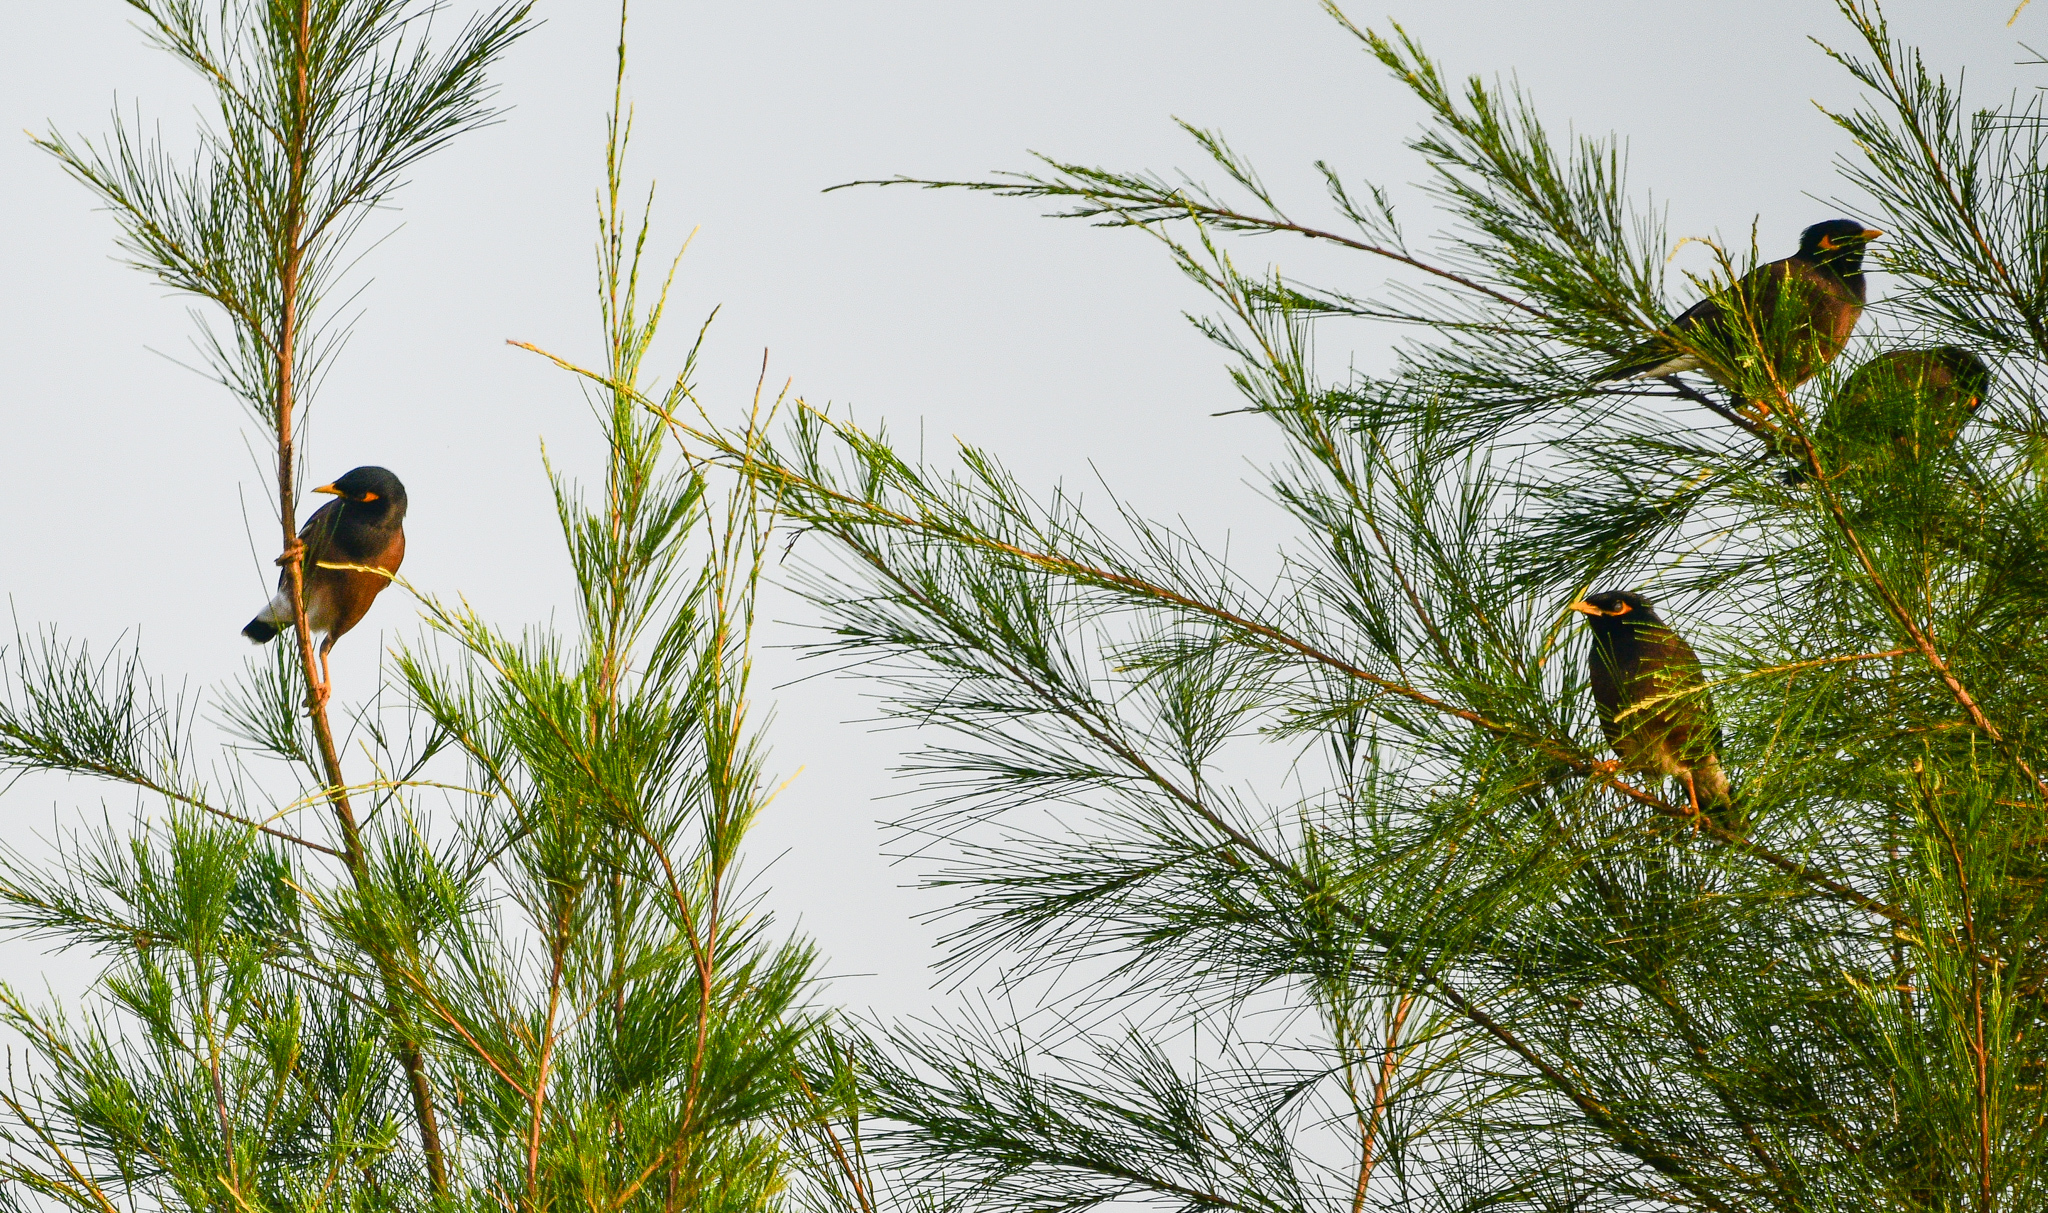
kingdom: Animalia
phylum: Chordata
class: Aves
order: Passeriformes
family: Sturnidae
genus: Acridotheres
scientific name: Acridotheres tristis
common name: Common myna
